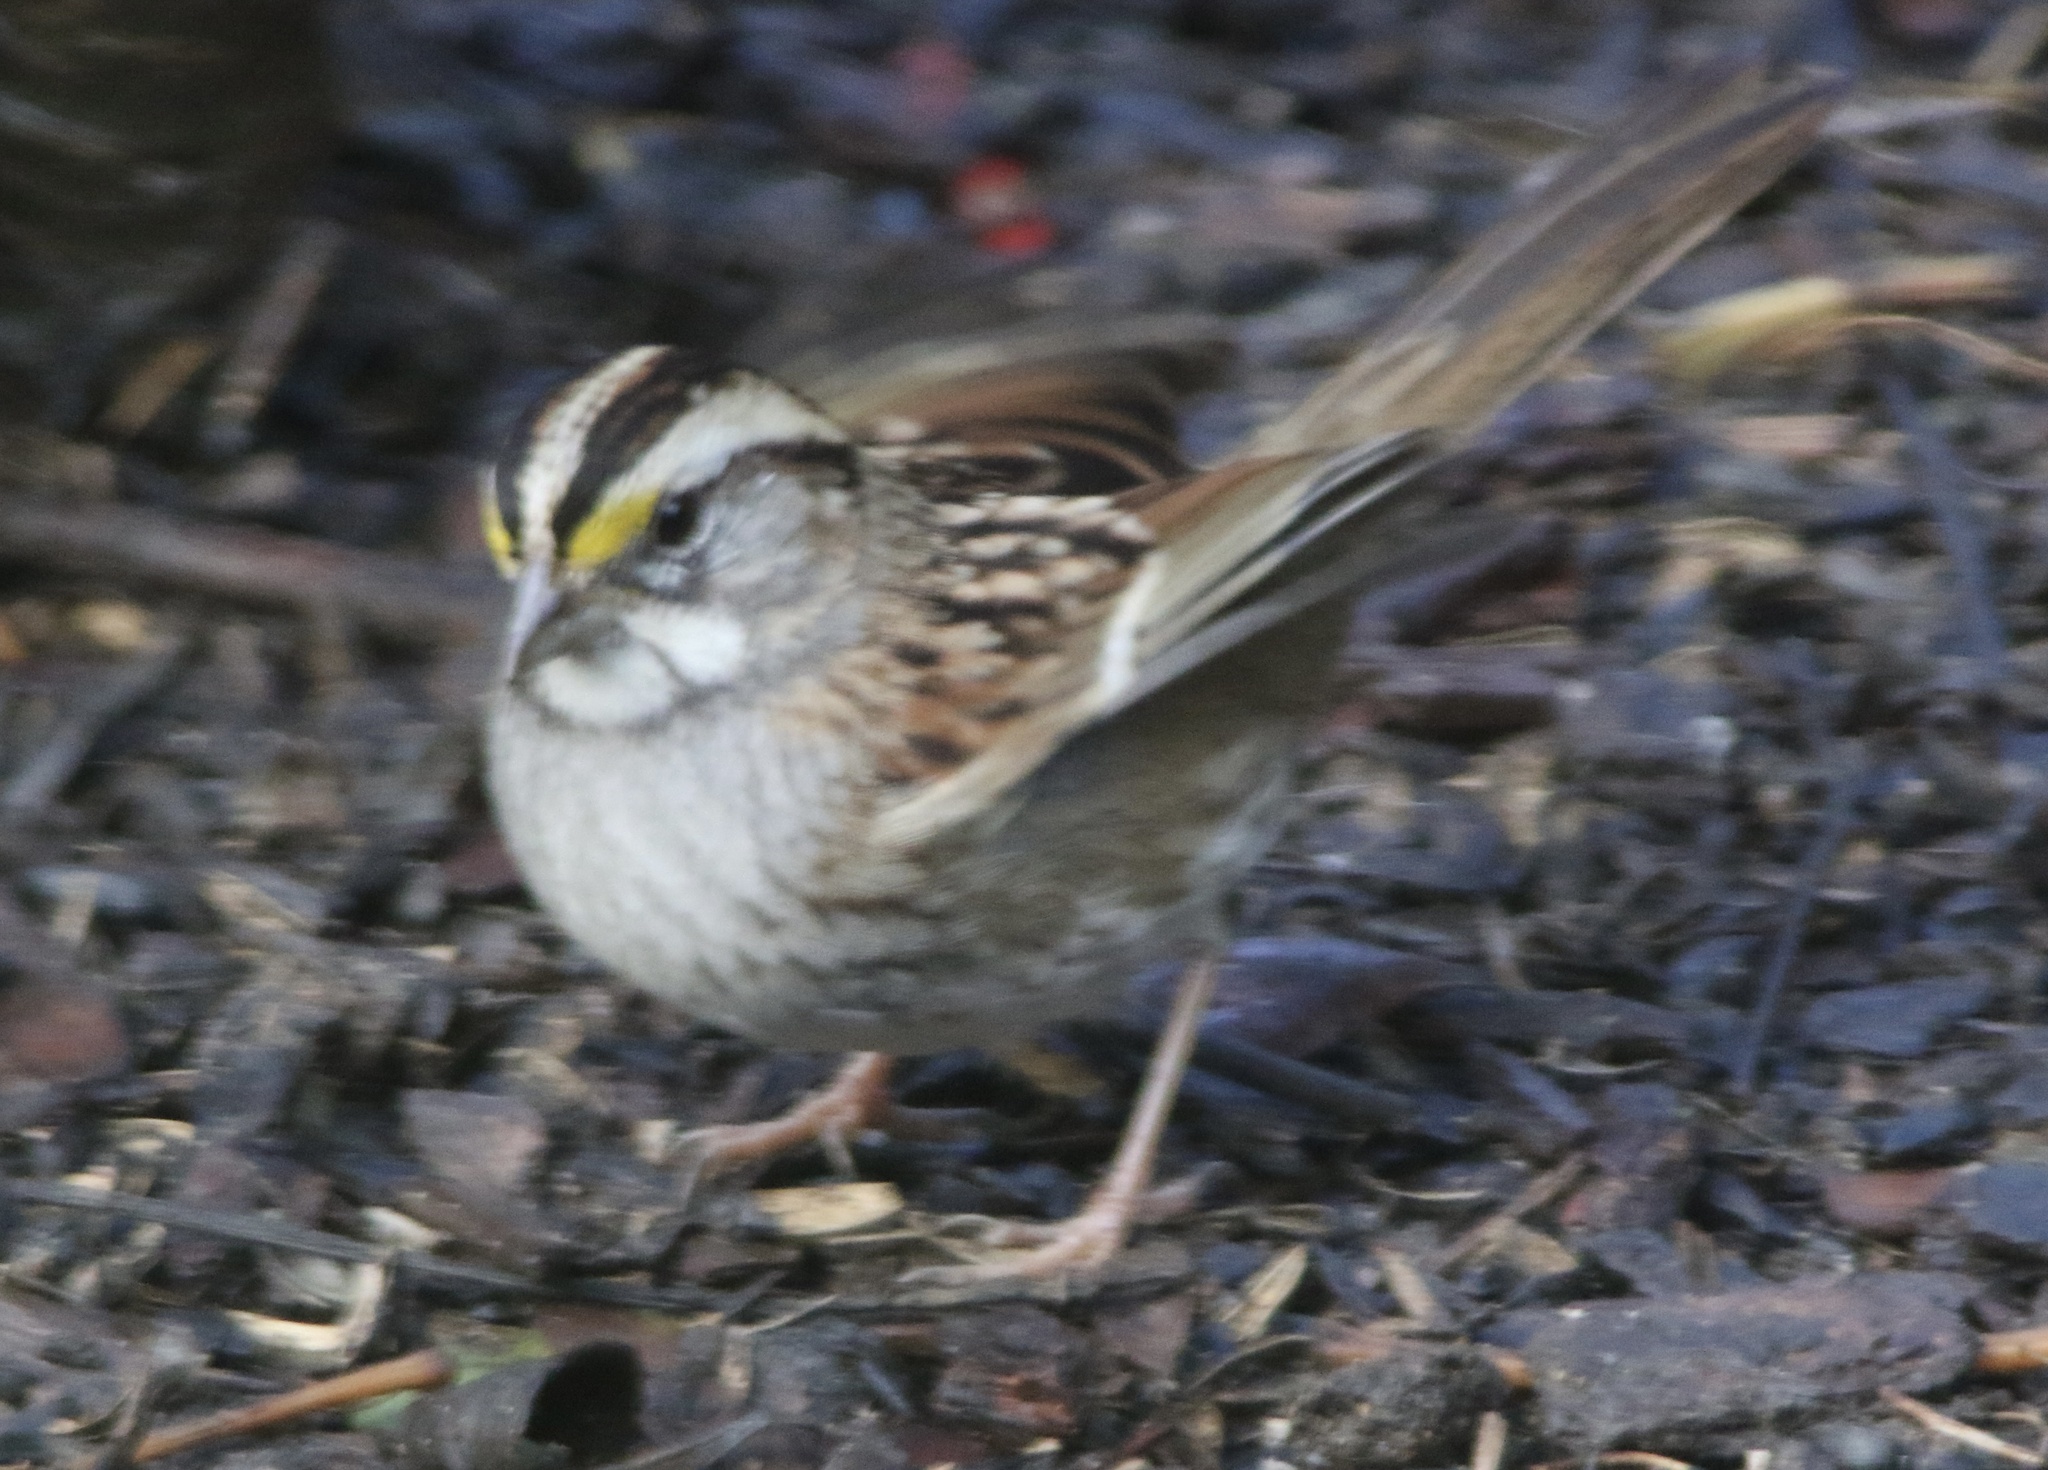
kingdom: Animalia
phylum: Chordata
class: Aves
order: Passeriformes
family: Passerellidae
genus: Zonotrichia
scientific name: Zonotrichia albicollis
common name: White-throated sparrow
